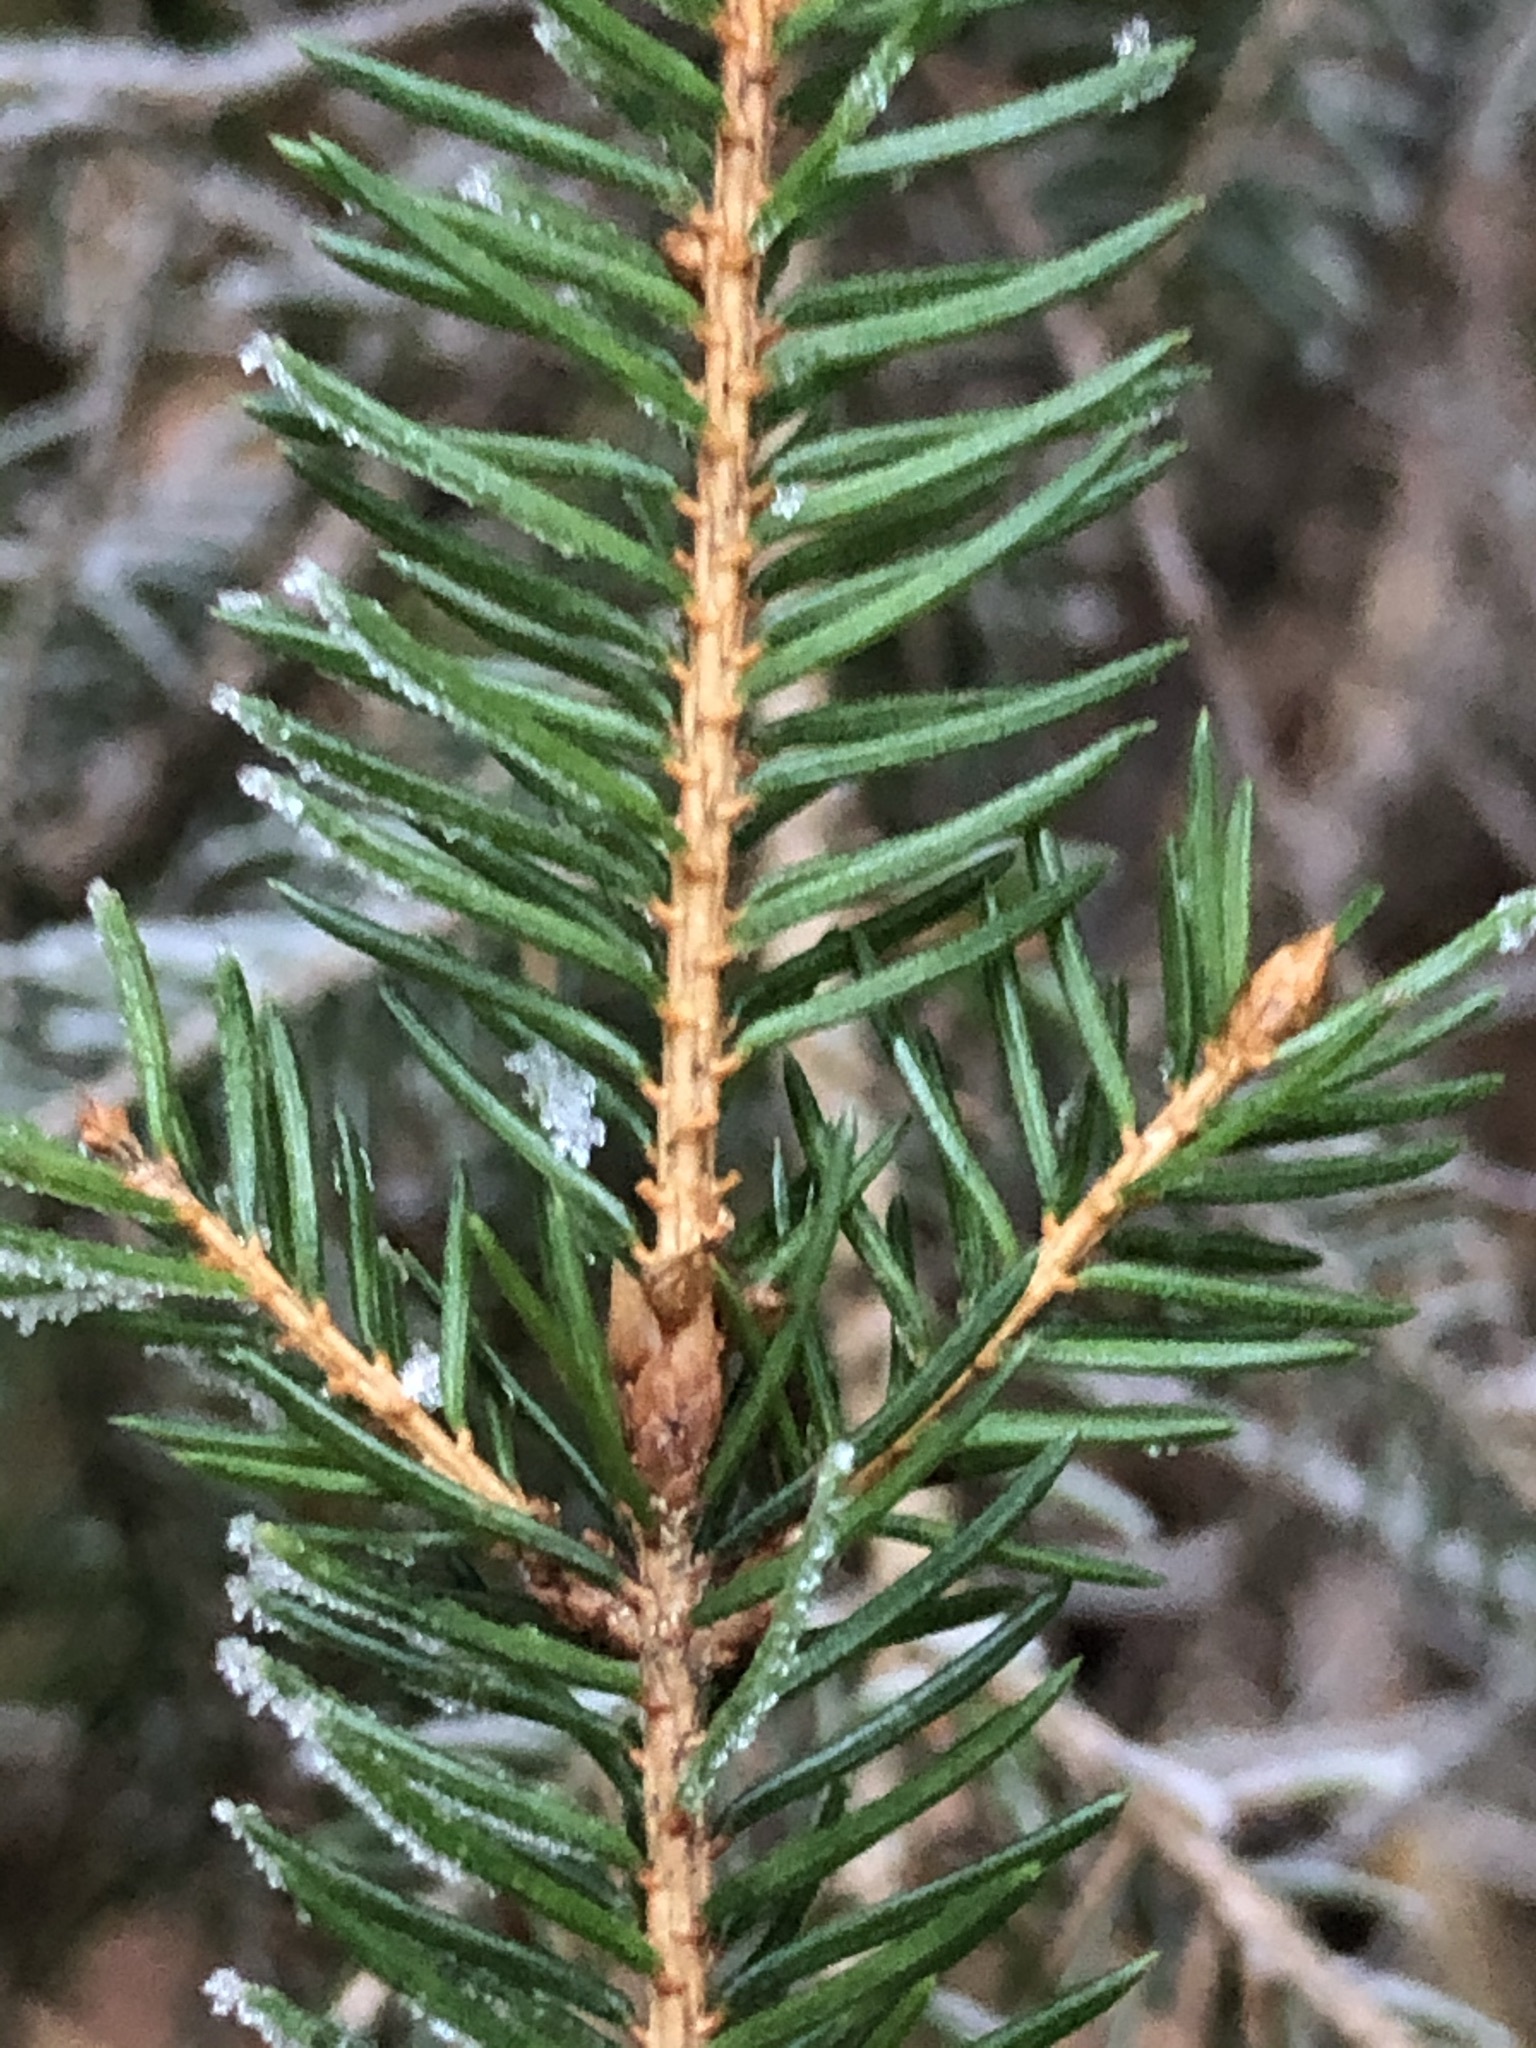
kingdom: Plantae
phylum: Tracheophyta
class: Pinopsida
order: Pinales
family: Pinaceae
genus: Picea
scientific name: Picea abies
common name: Norway spruce
